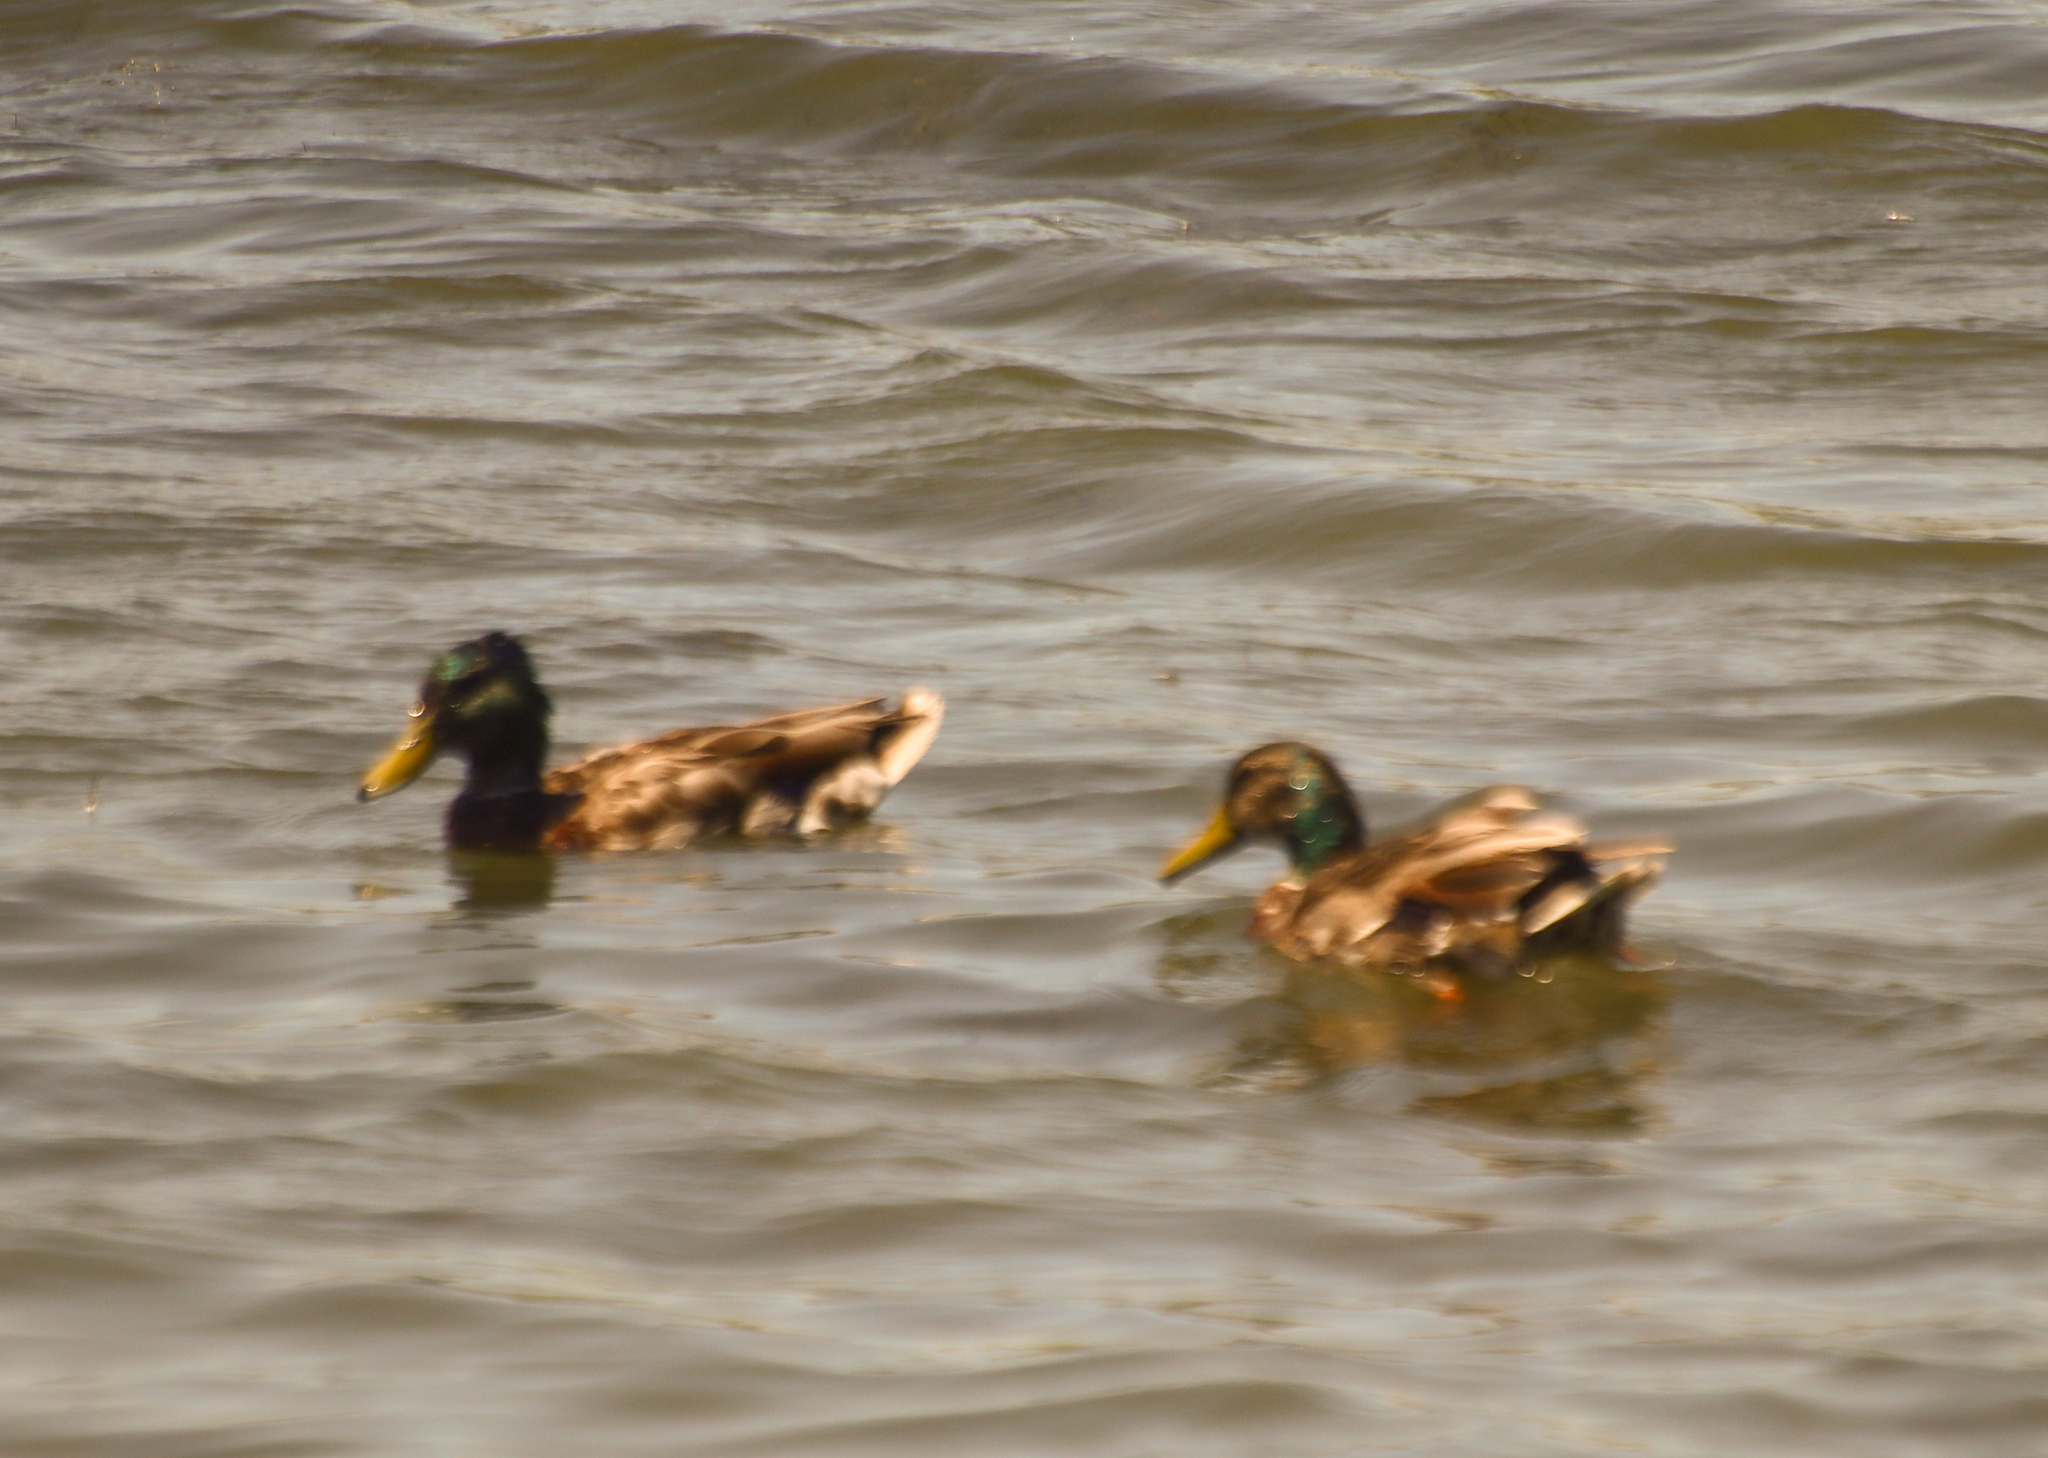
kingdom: Animalia
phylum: Chordata
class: Aves
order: Anseriformes
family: Anatidae
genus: Anas
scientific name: Anas platyrhynchos
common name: Mallard
